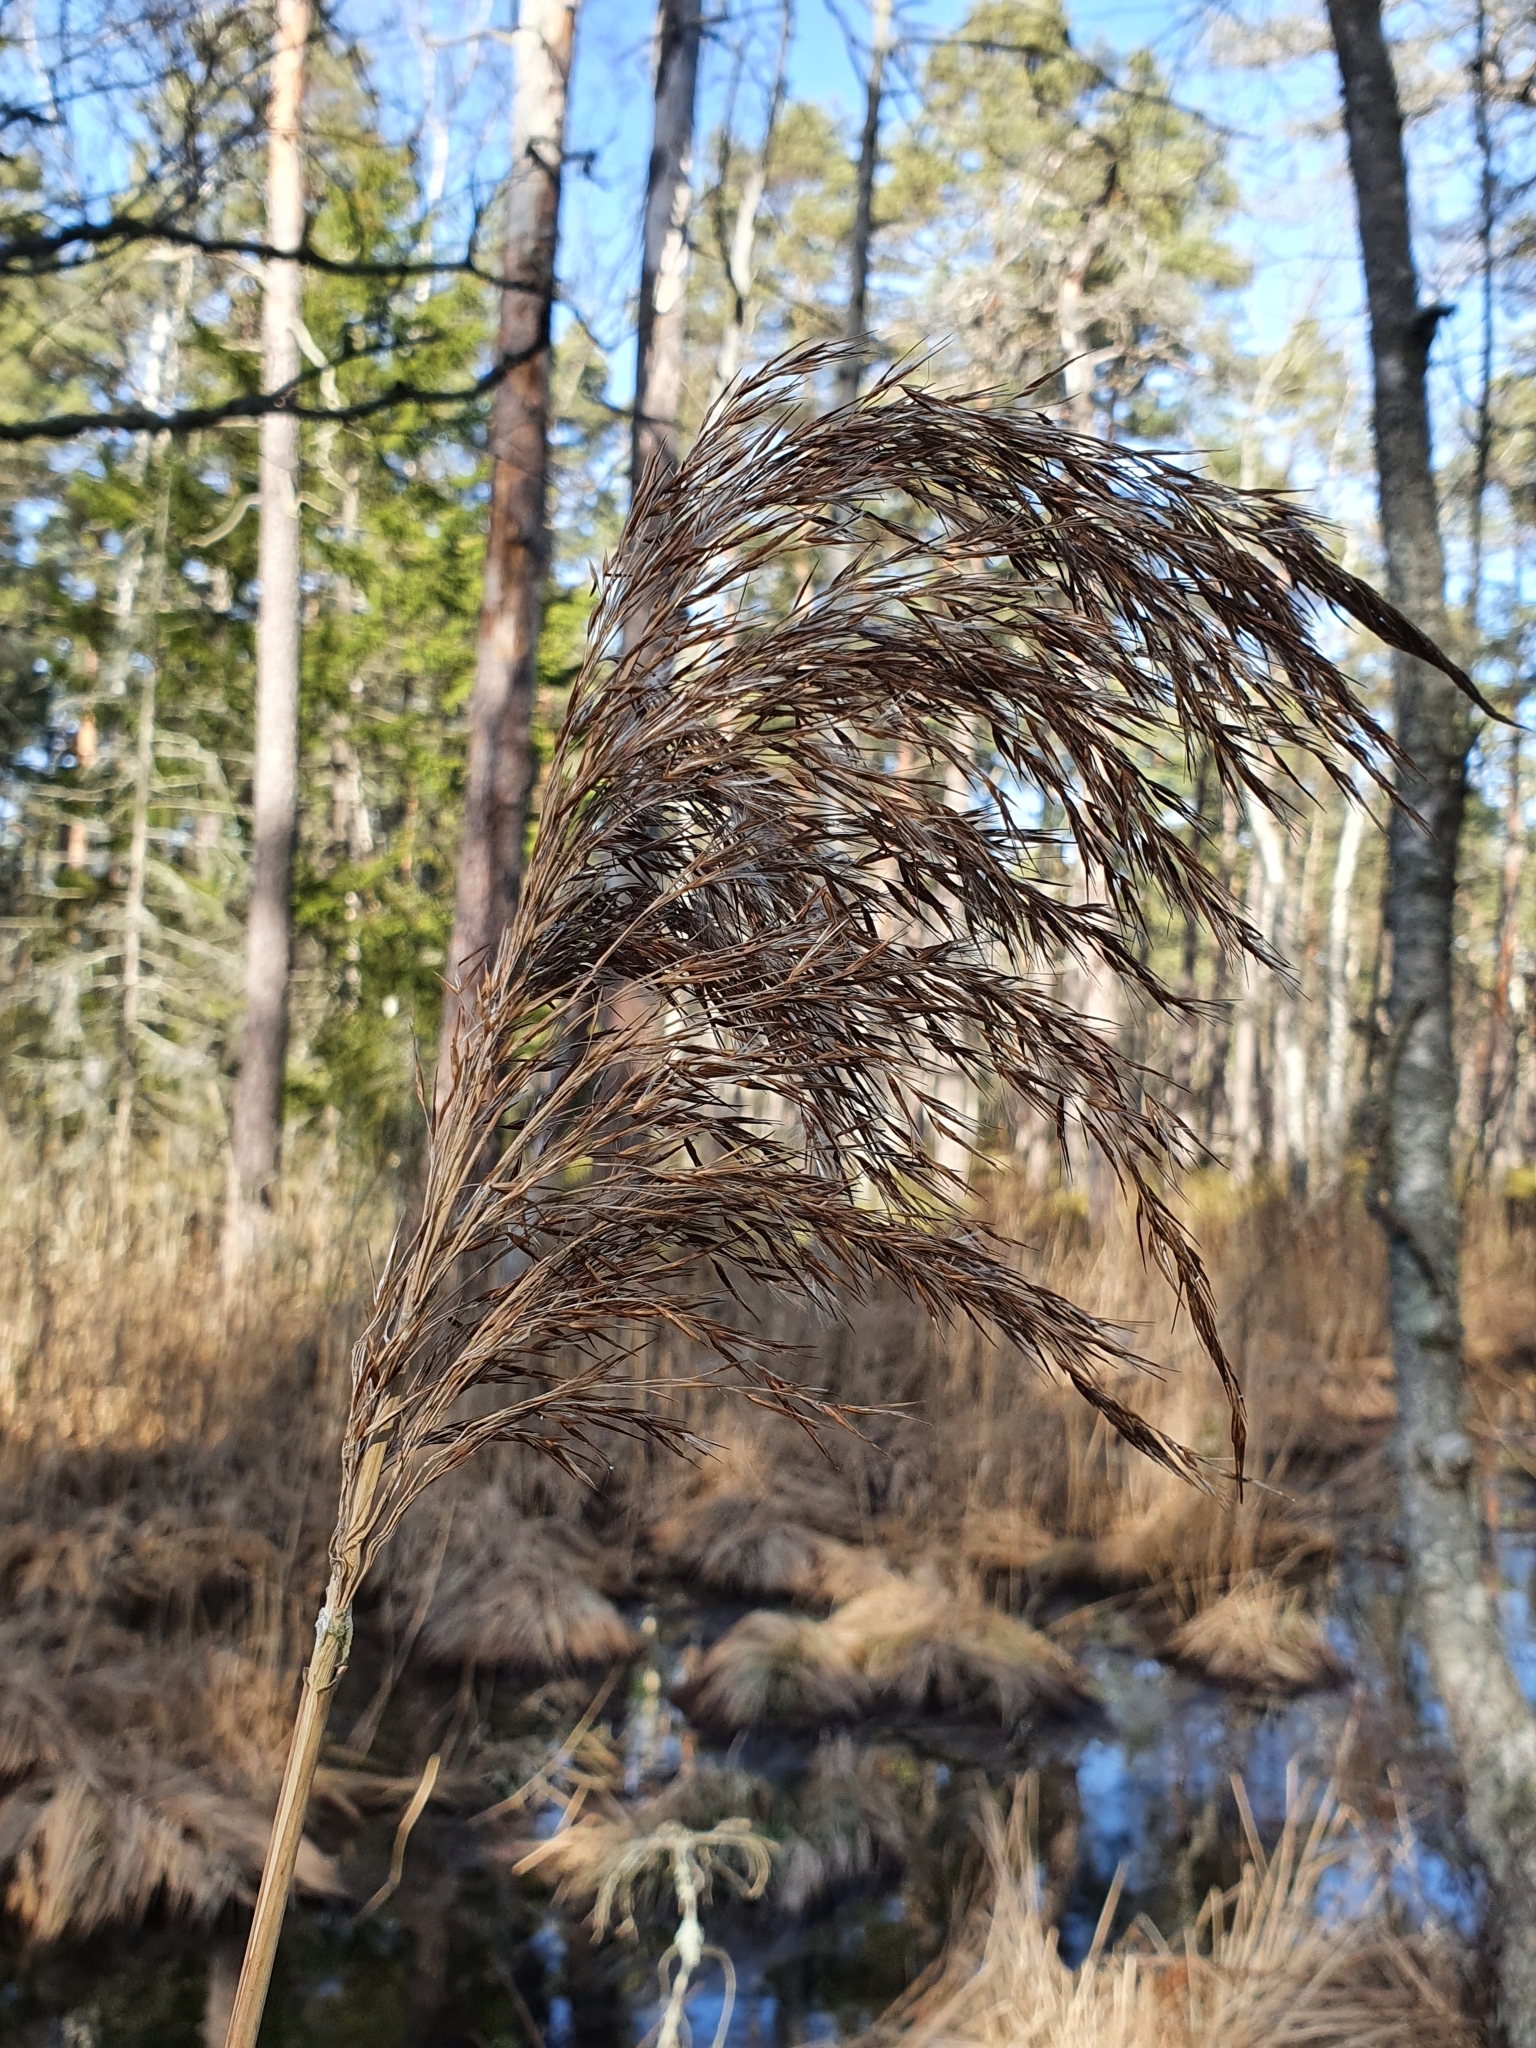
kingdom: Plantae
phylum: Tracheophyta
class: Liliopsida
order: Poales
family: Poaceae
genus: Phragmites
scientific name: Phragmites australis
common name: Common reed
